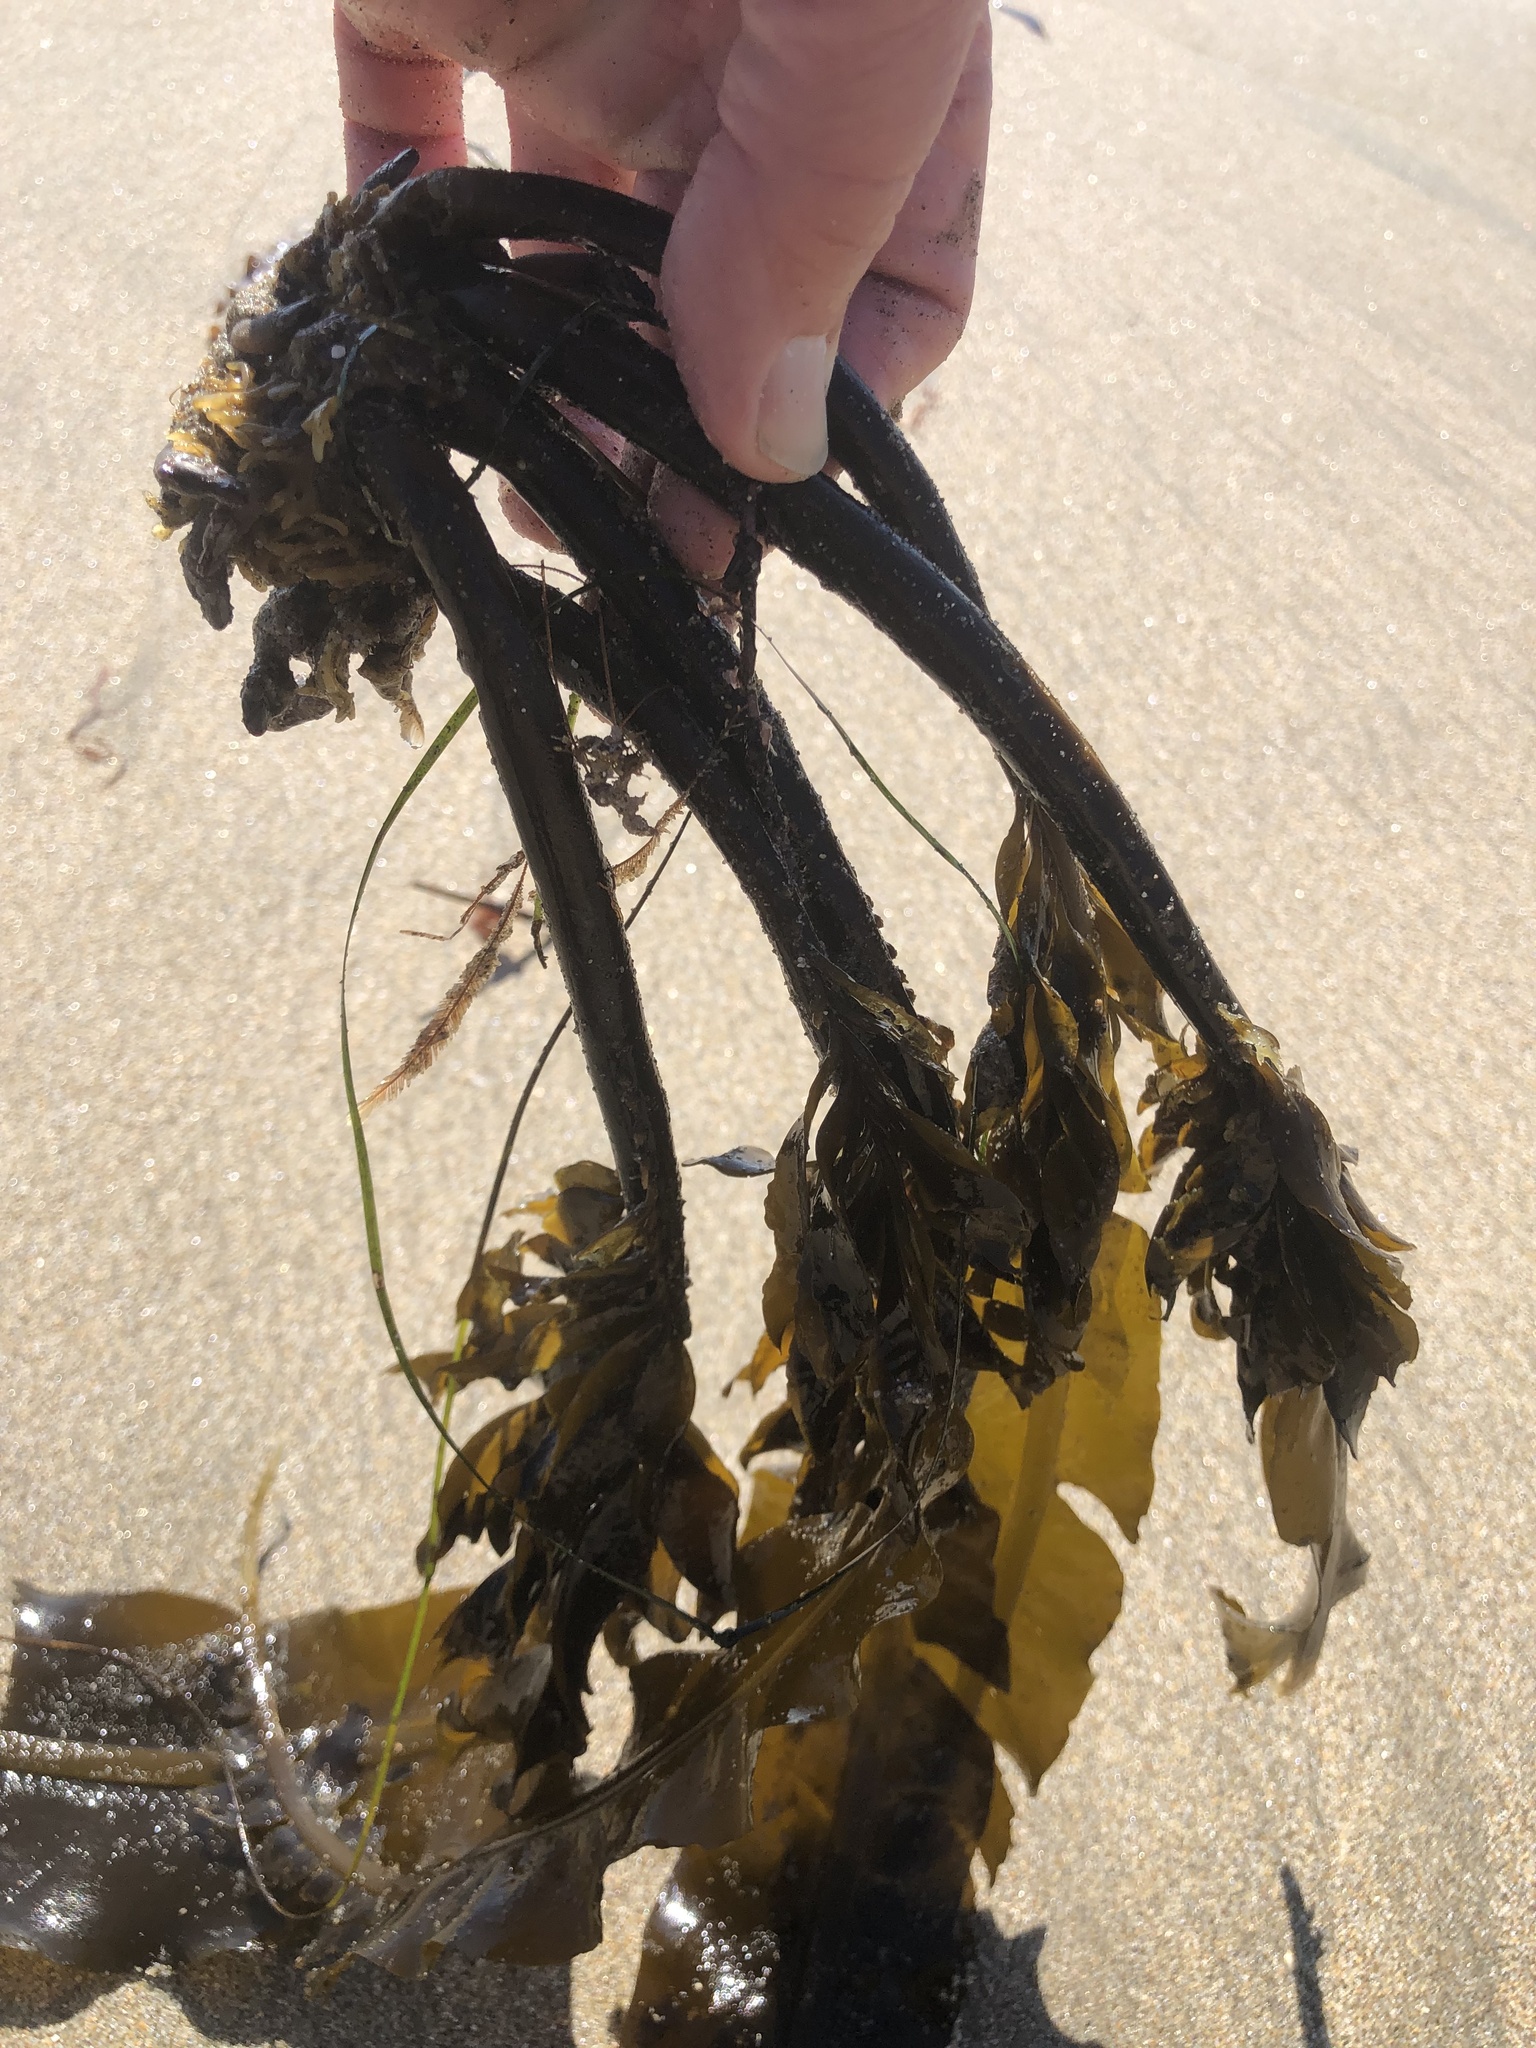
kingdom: Chromista
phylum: Ochrophyta
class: Phaeophyceae
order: Laminariales
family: Alariaceae
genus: Alaria
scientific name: Alaria marginata
